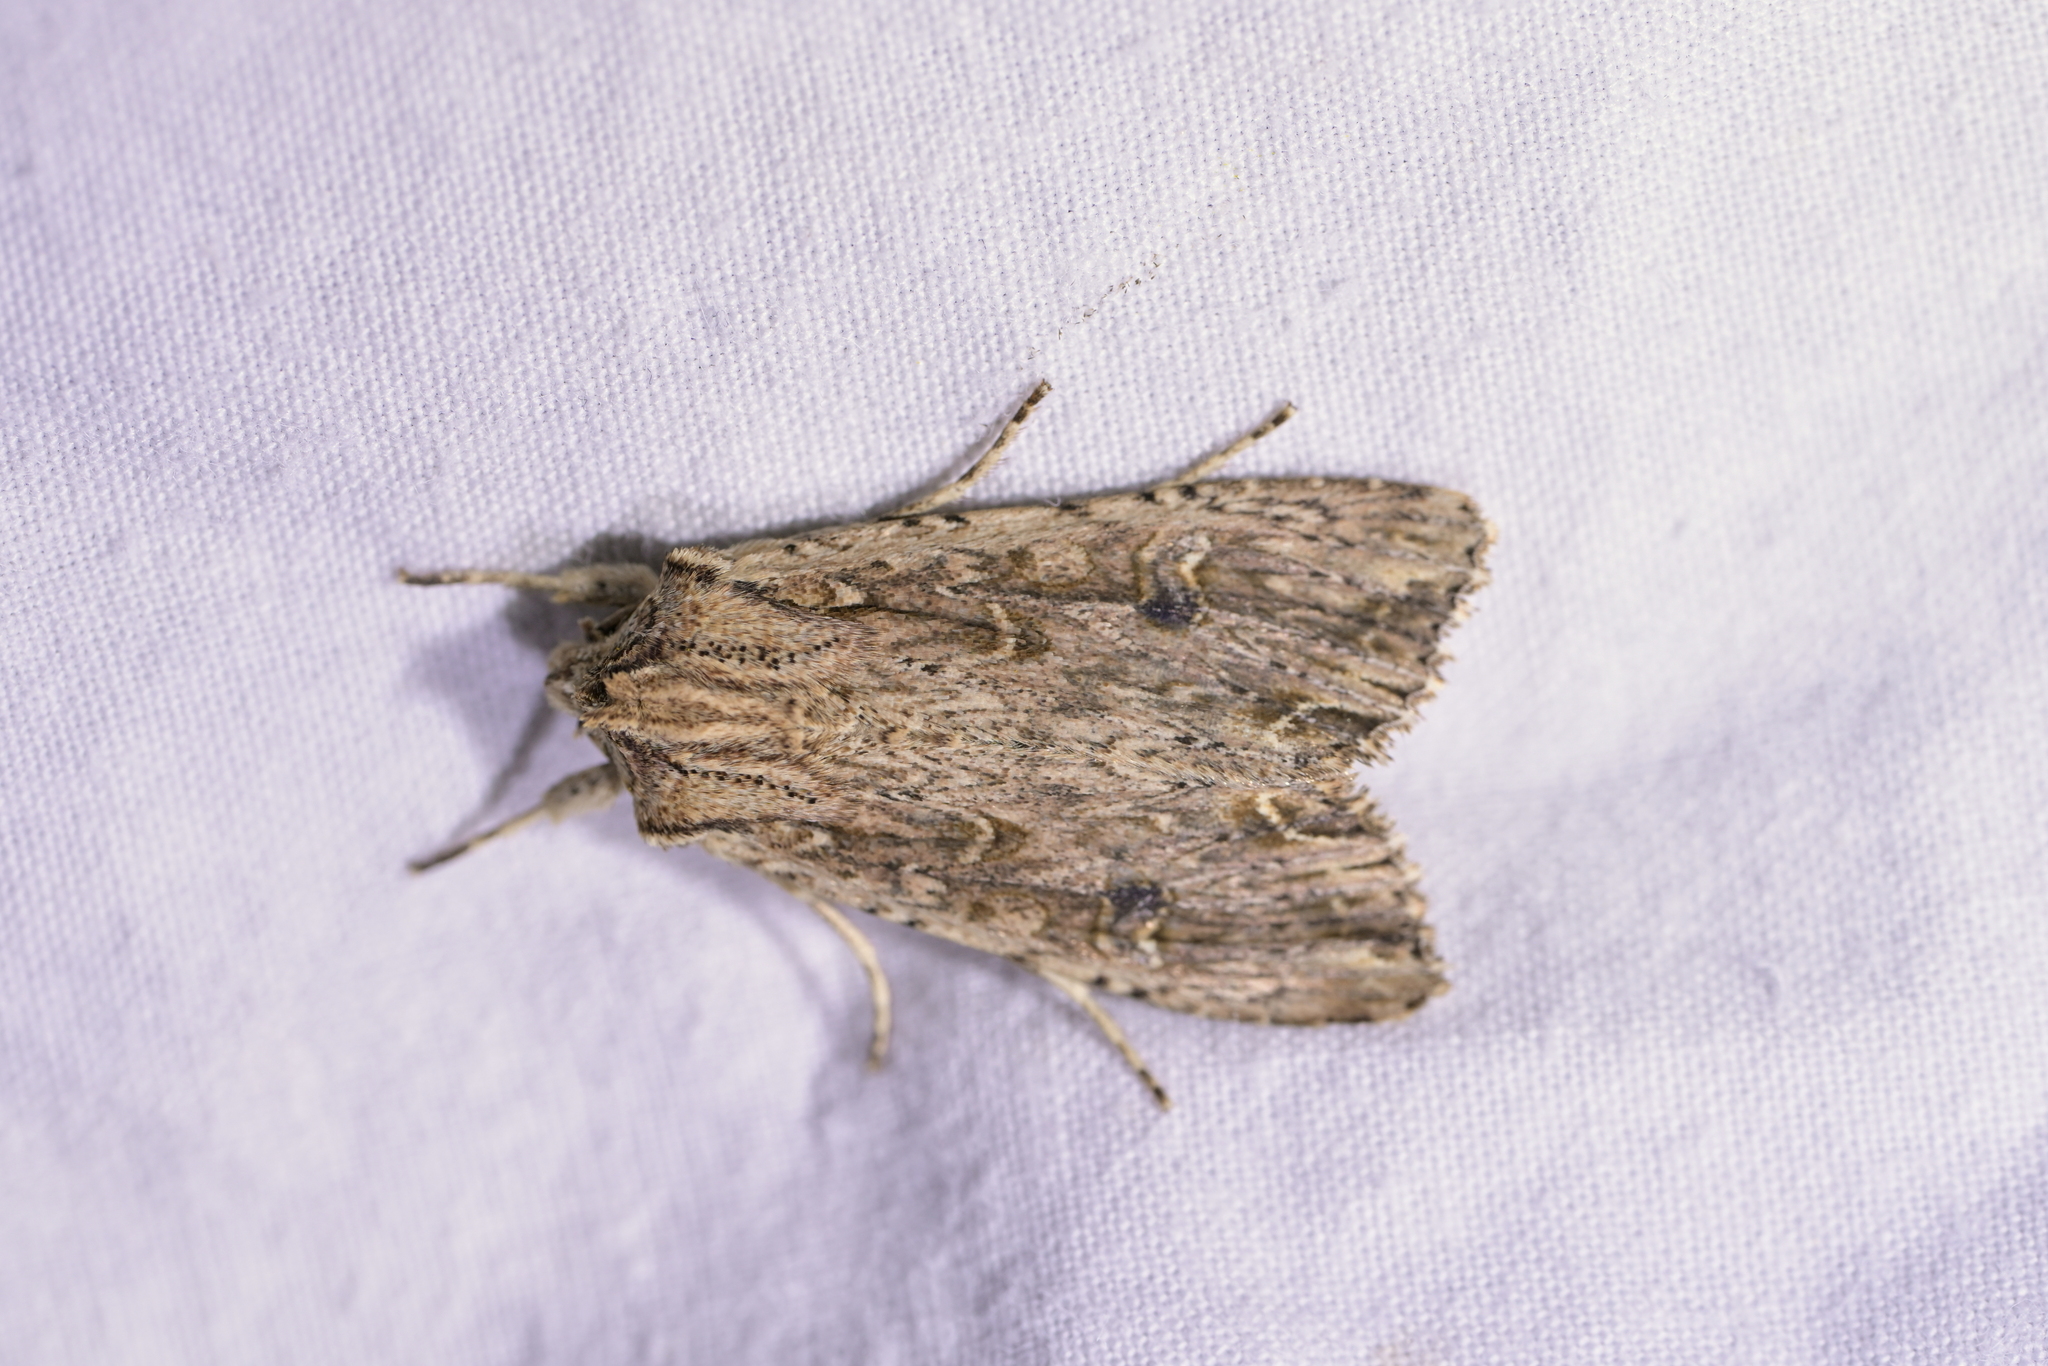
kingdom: Animalia
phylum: Arthropoda
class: Insecta
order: Lepidoptera
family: Noctuidae
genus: Ichneutica
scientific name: Ichneutica lignana
